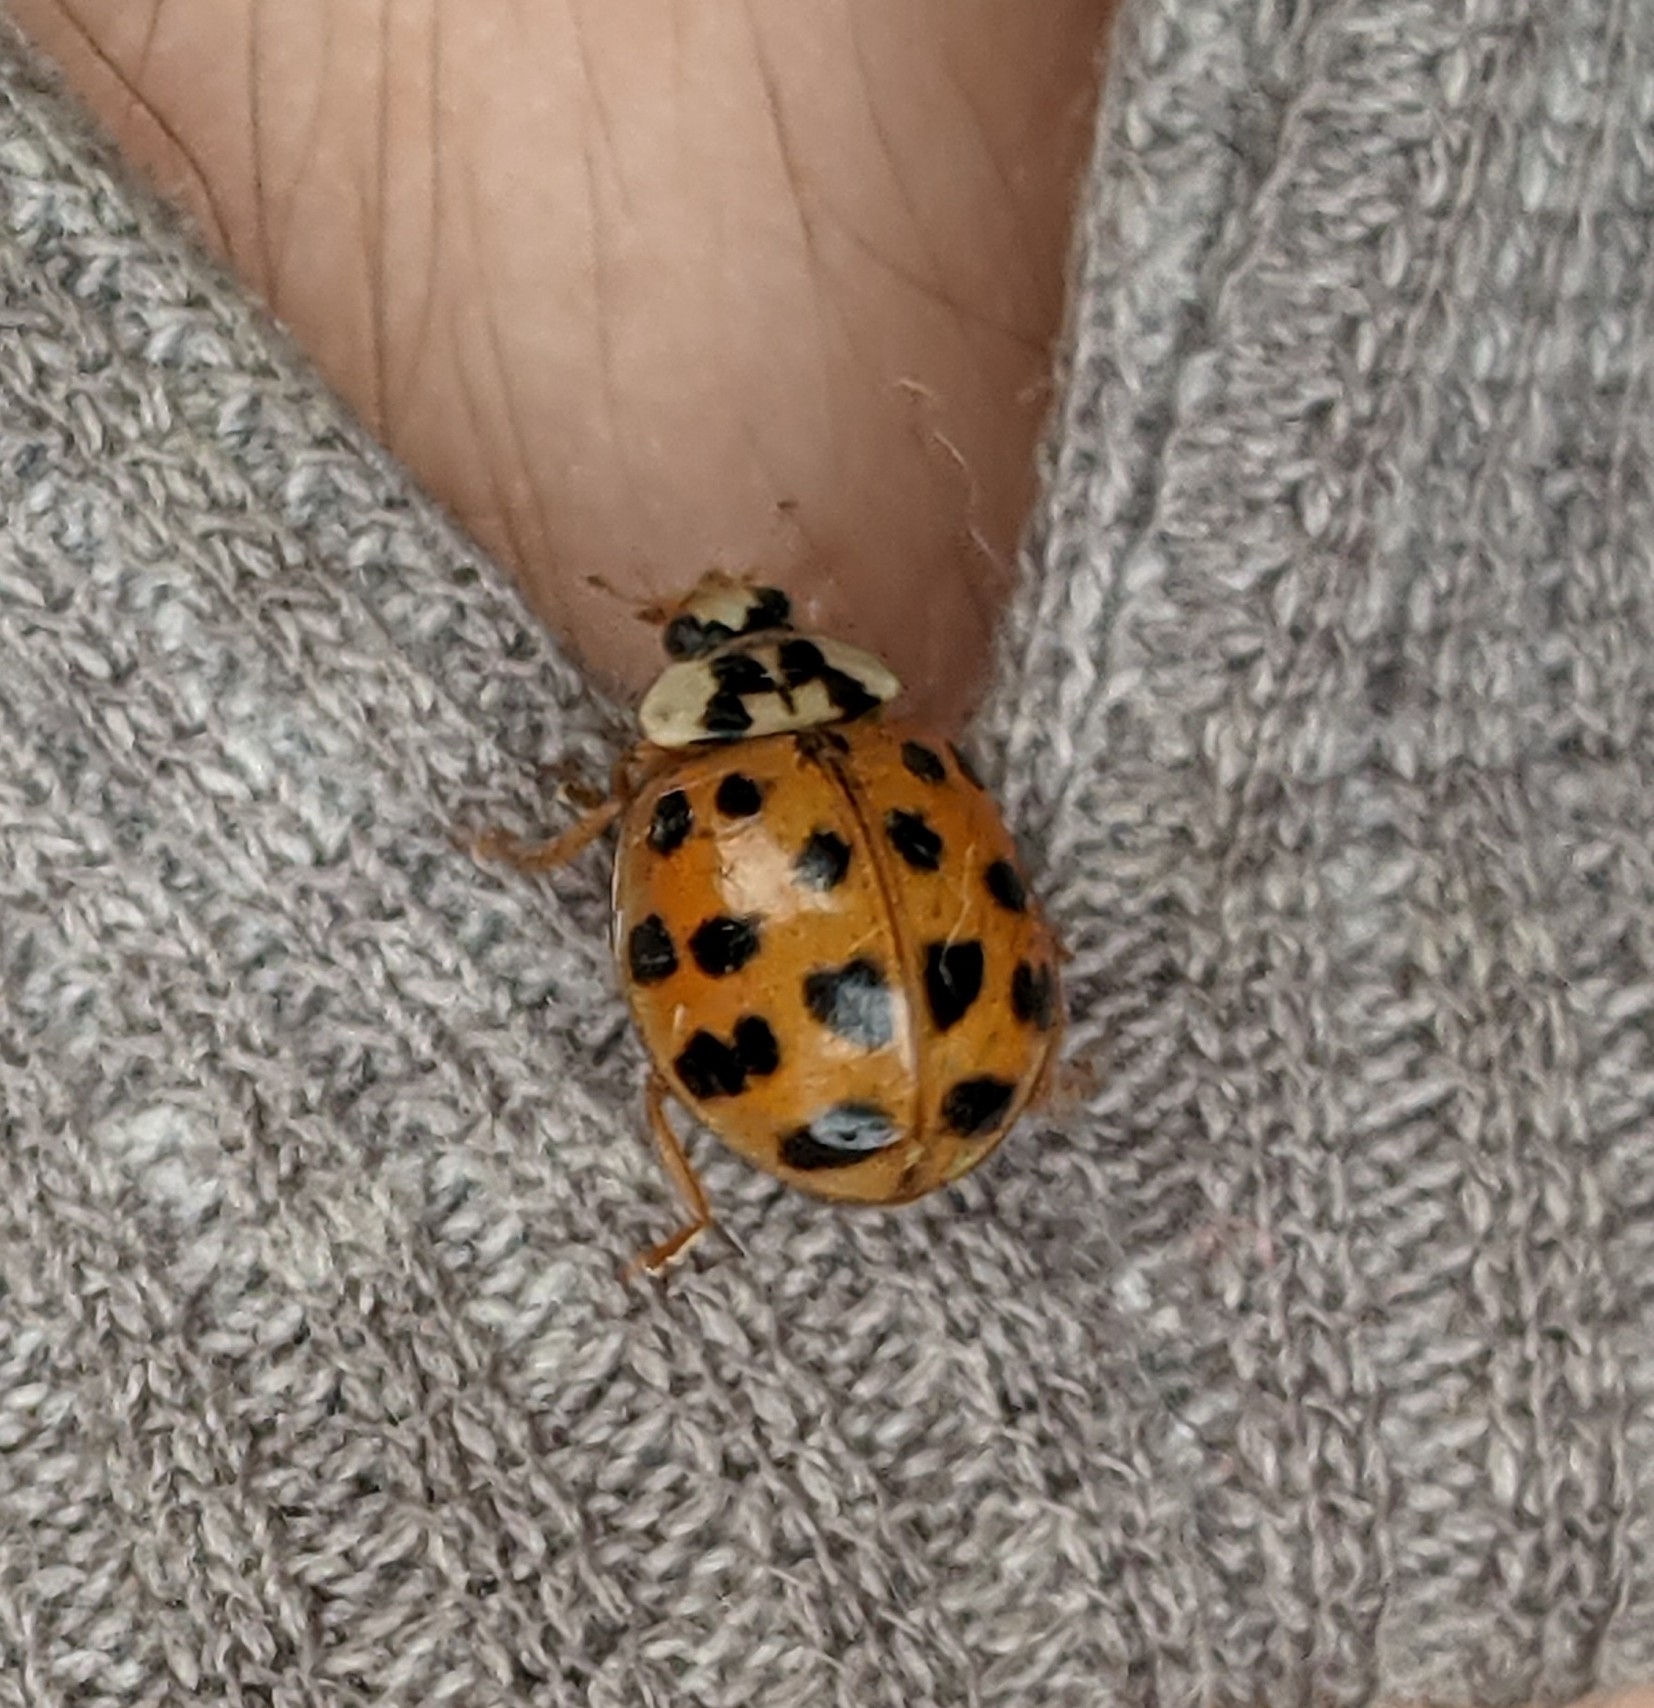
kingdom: Animalia
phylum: Arthropoda
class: Insecta
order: Coleoptera
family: Coccinellidae
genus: Harmonia
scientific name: Harmonia axyridis
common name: Harlequin ladybird
